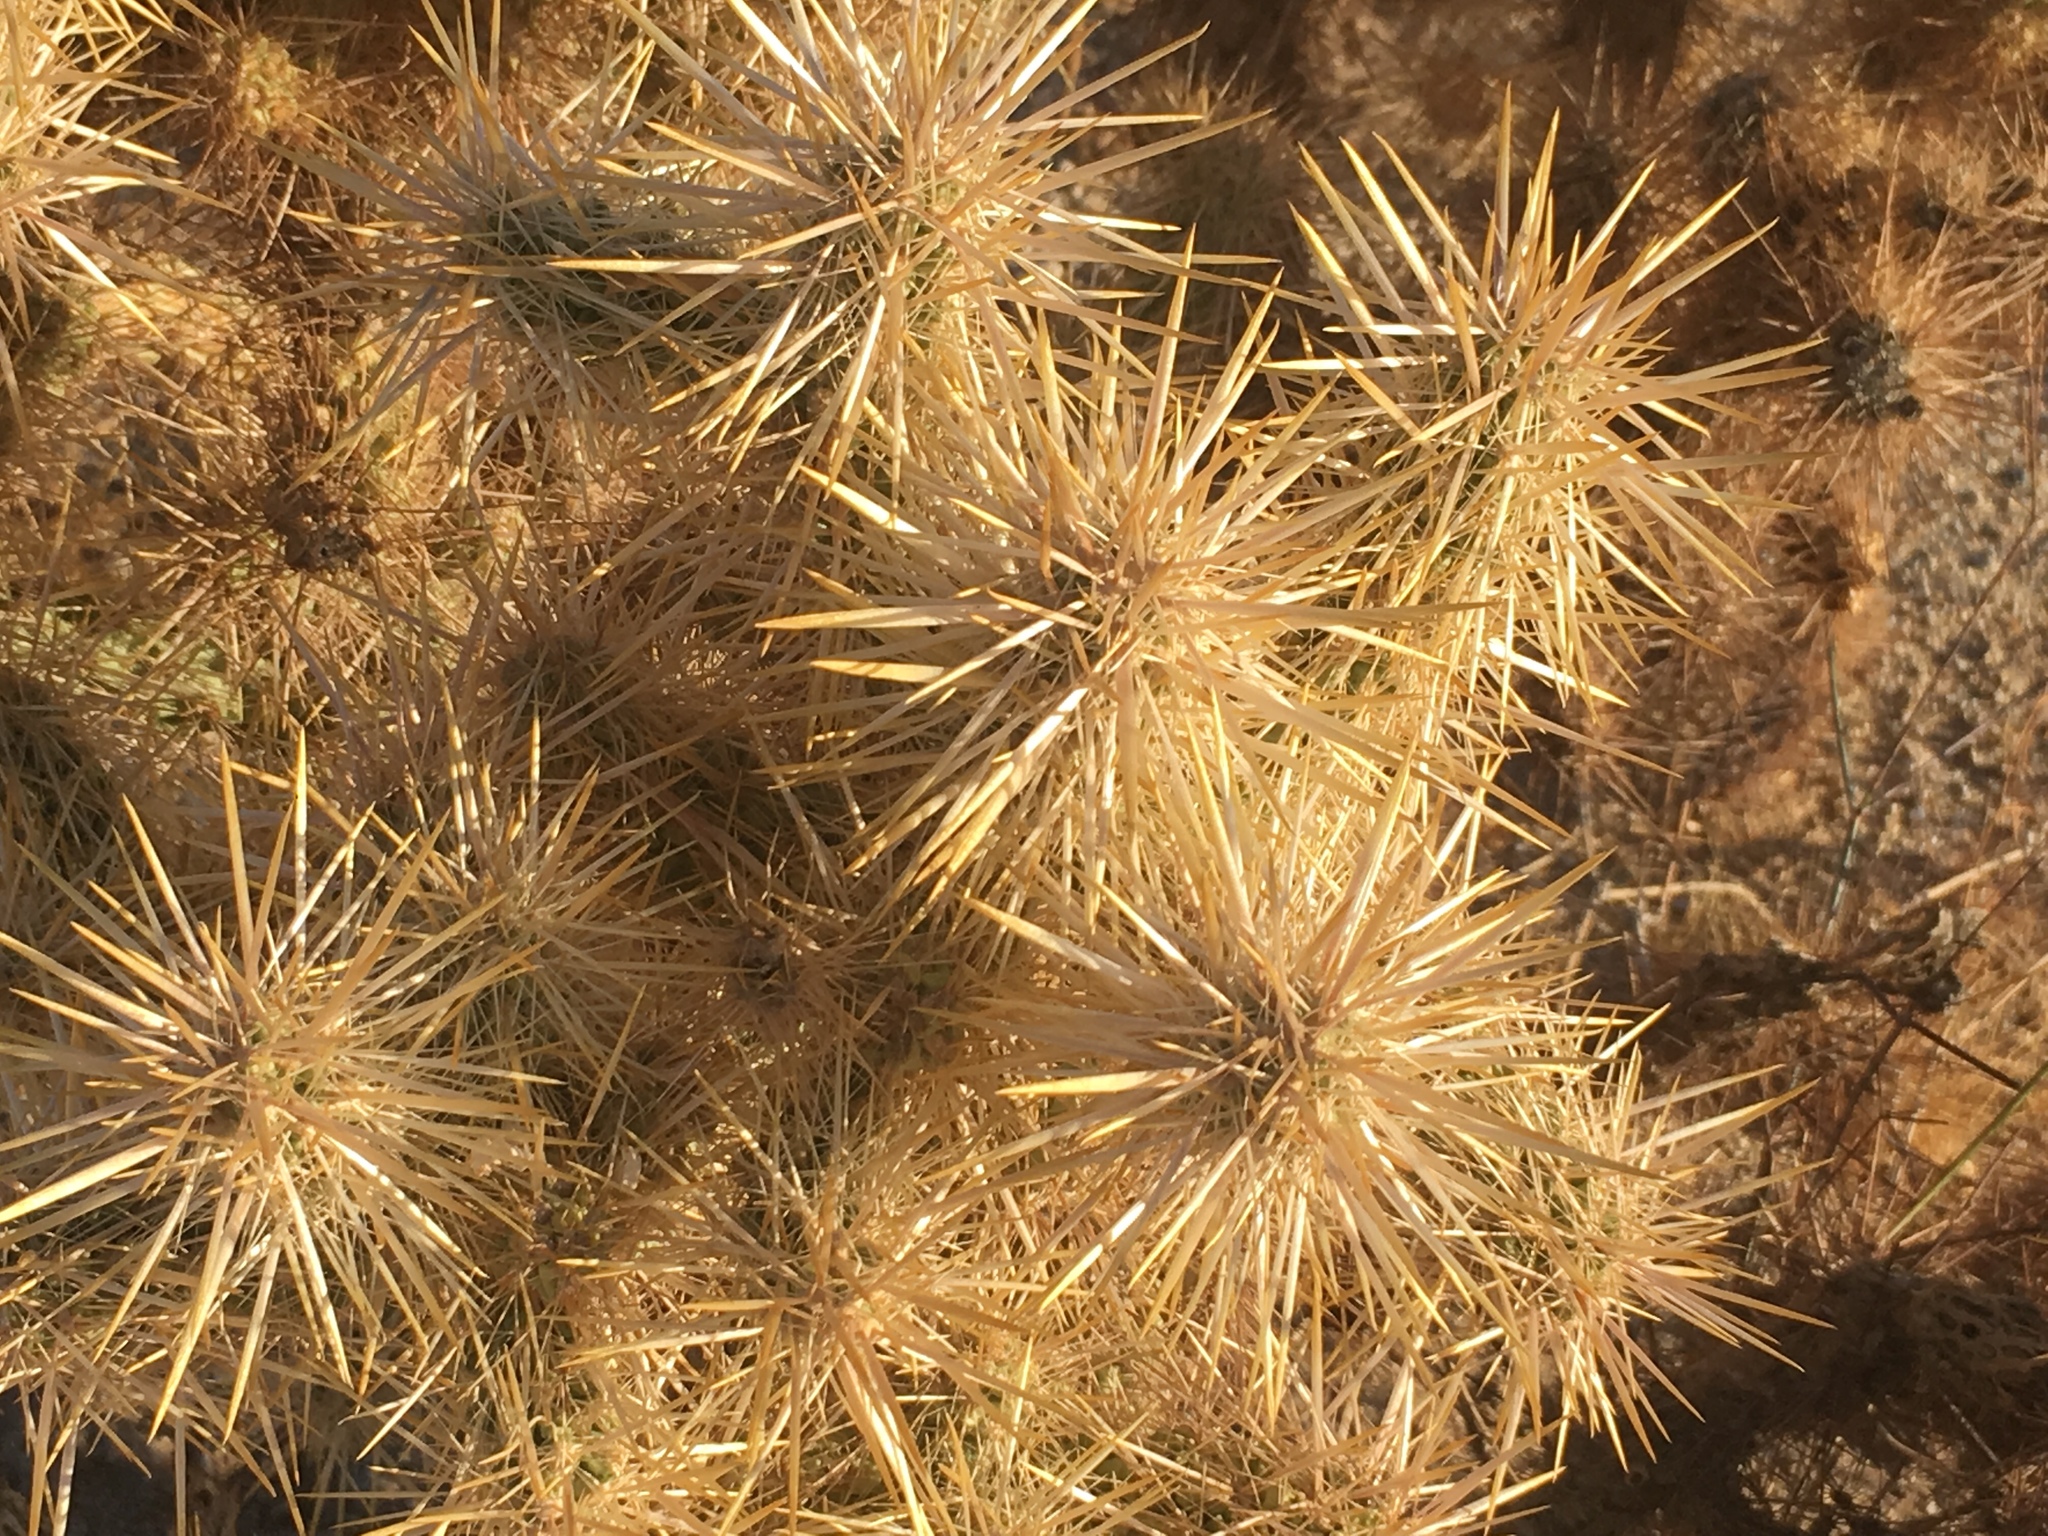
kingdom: Plantae
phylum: Tracheophyta
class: Magnoliopsida
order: Caryophyllales
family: Cactaceae
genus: Cylindropuntia
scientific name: Cylindropuntia echinocarpa
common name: Ground cholla
